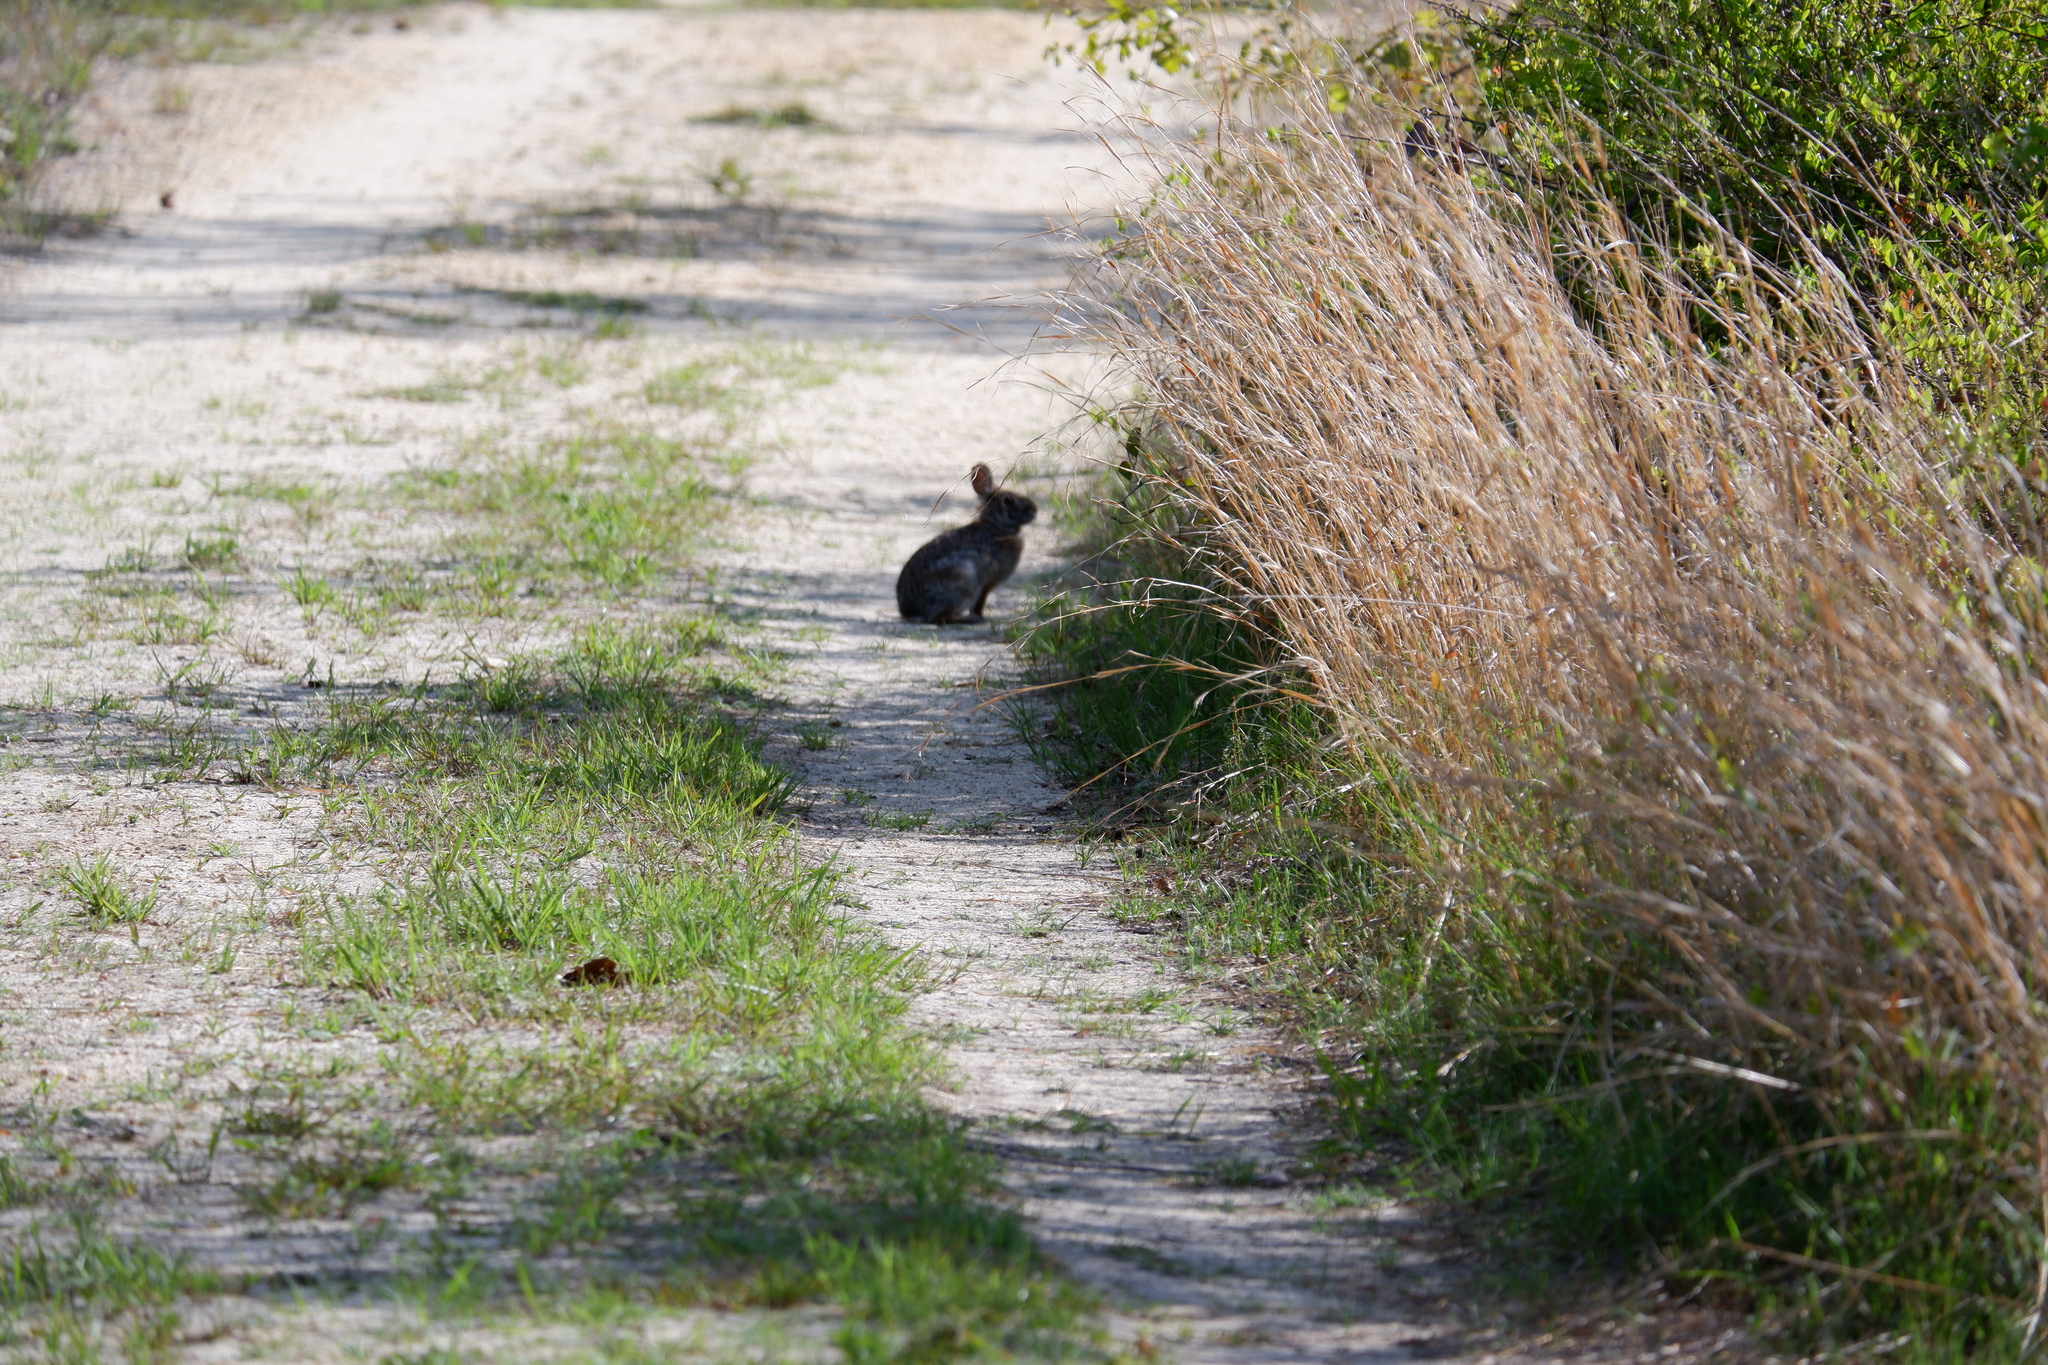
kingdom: Animalia
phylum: Chordata
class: Mammalia
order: Lagomorpha
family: Leporidae
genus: Sylvilagus
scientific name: Sylvilagus floridanus
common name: Eastern cottontail
